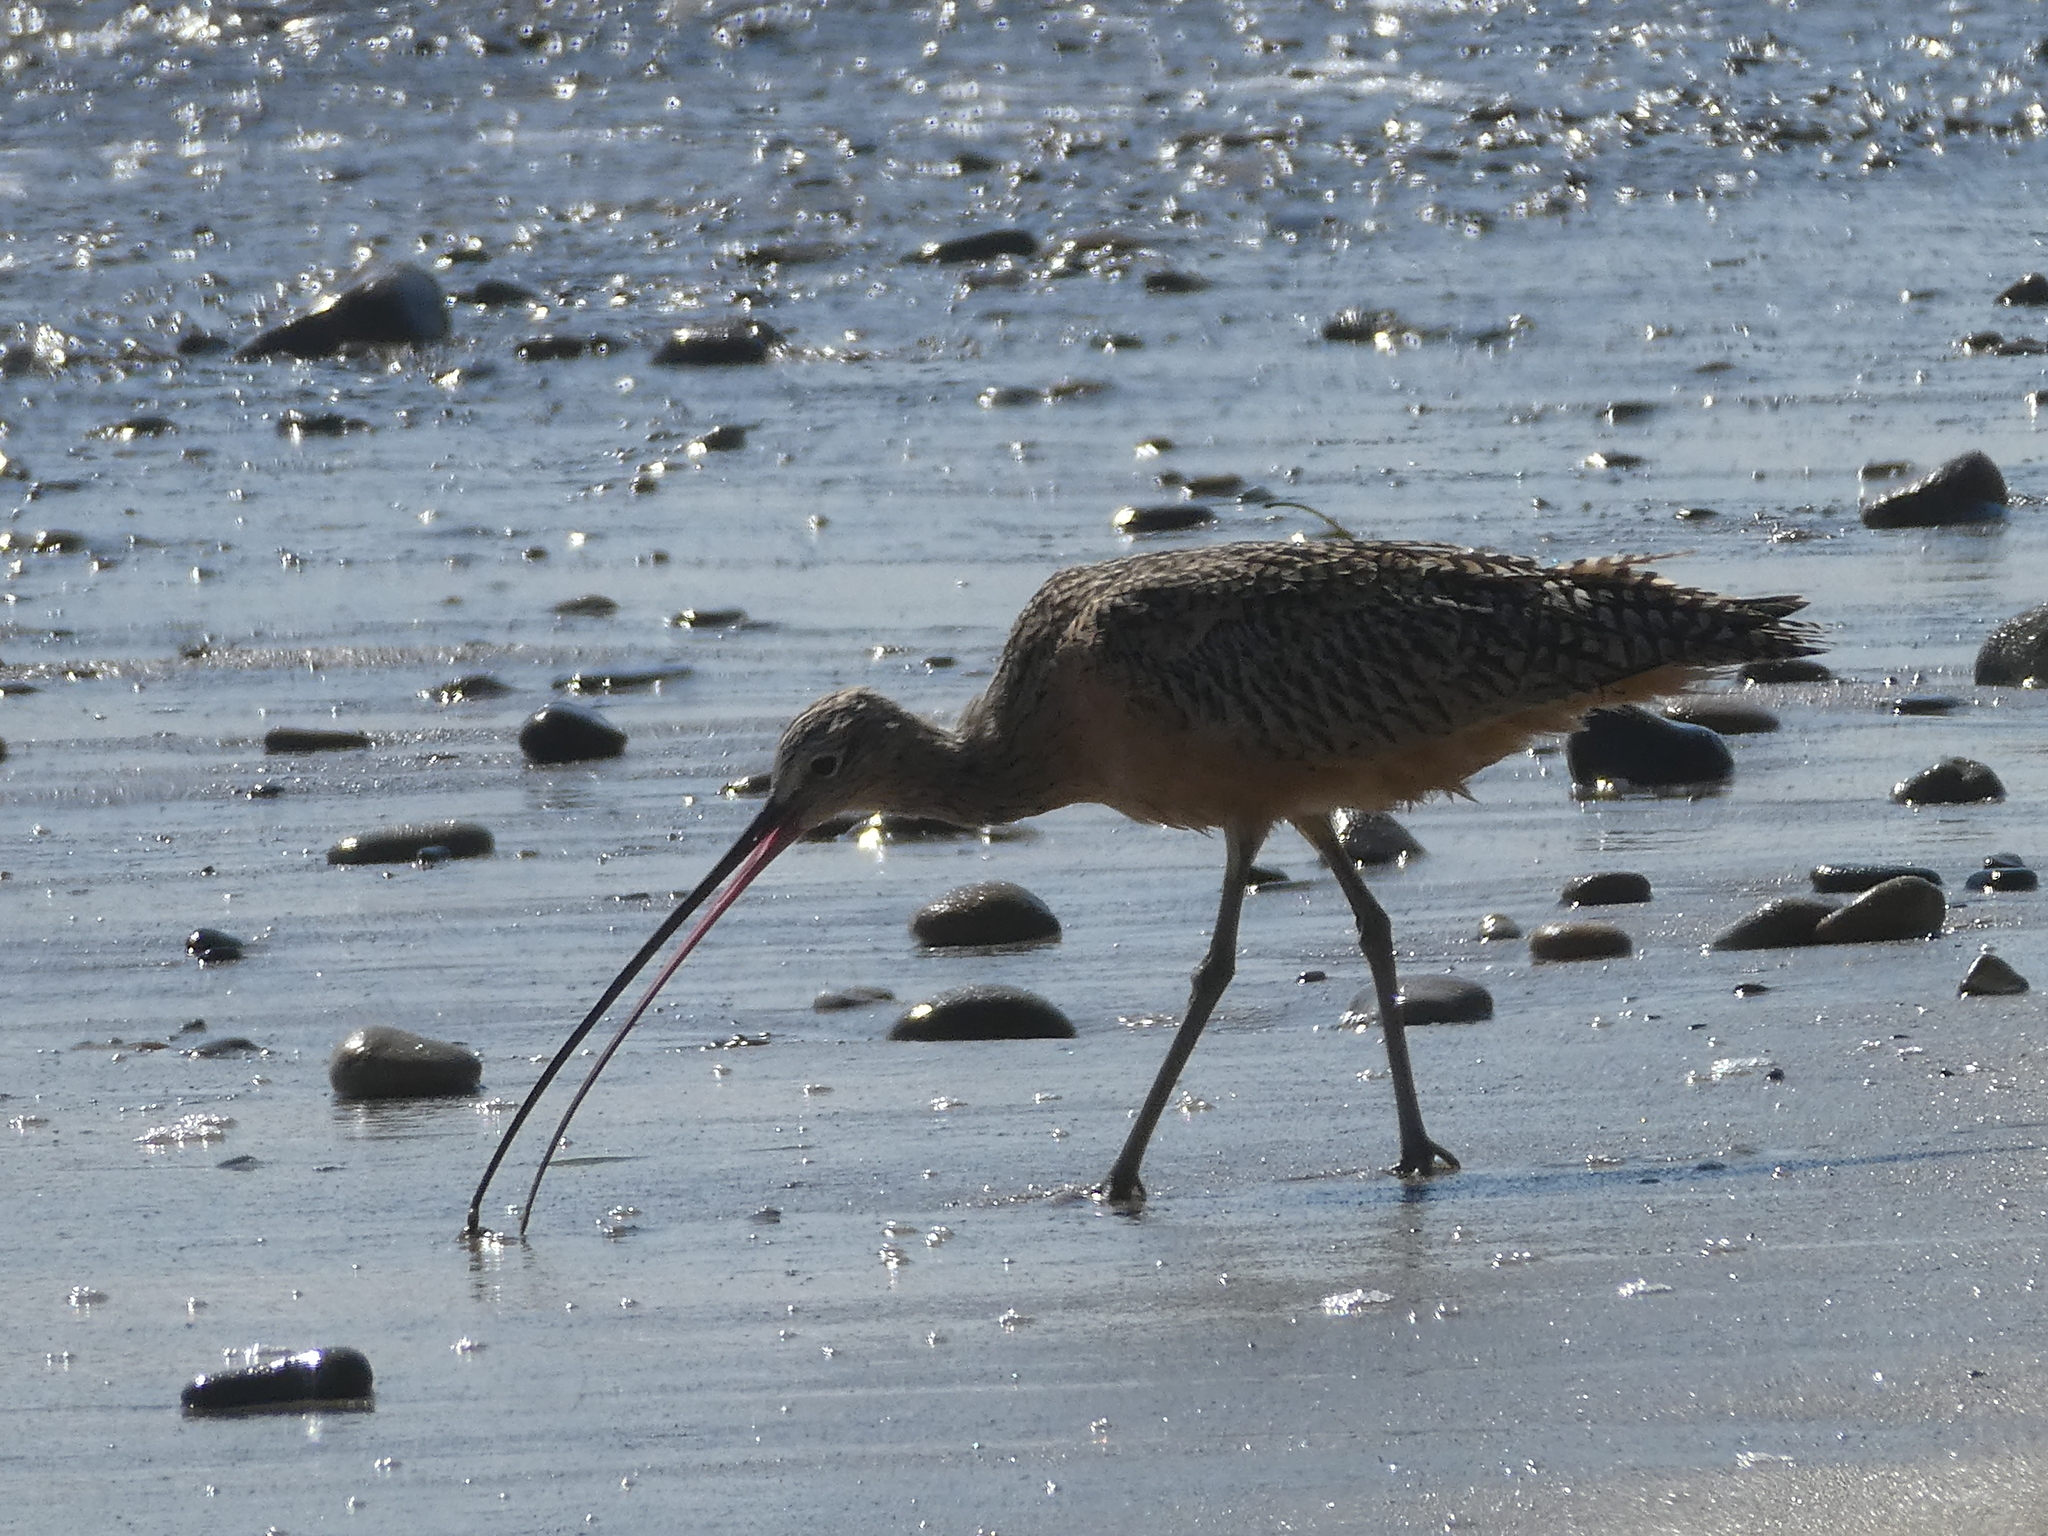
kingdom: Animalia
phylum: Chordata
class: Aves
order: Charadriiformes
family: Scolopacidae
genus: Numenius
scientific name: Numenius americanus
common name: Long-billed curlew
